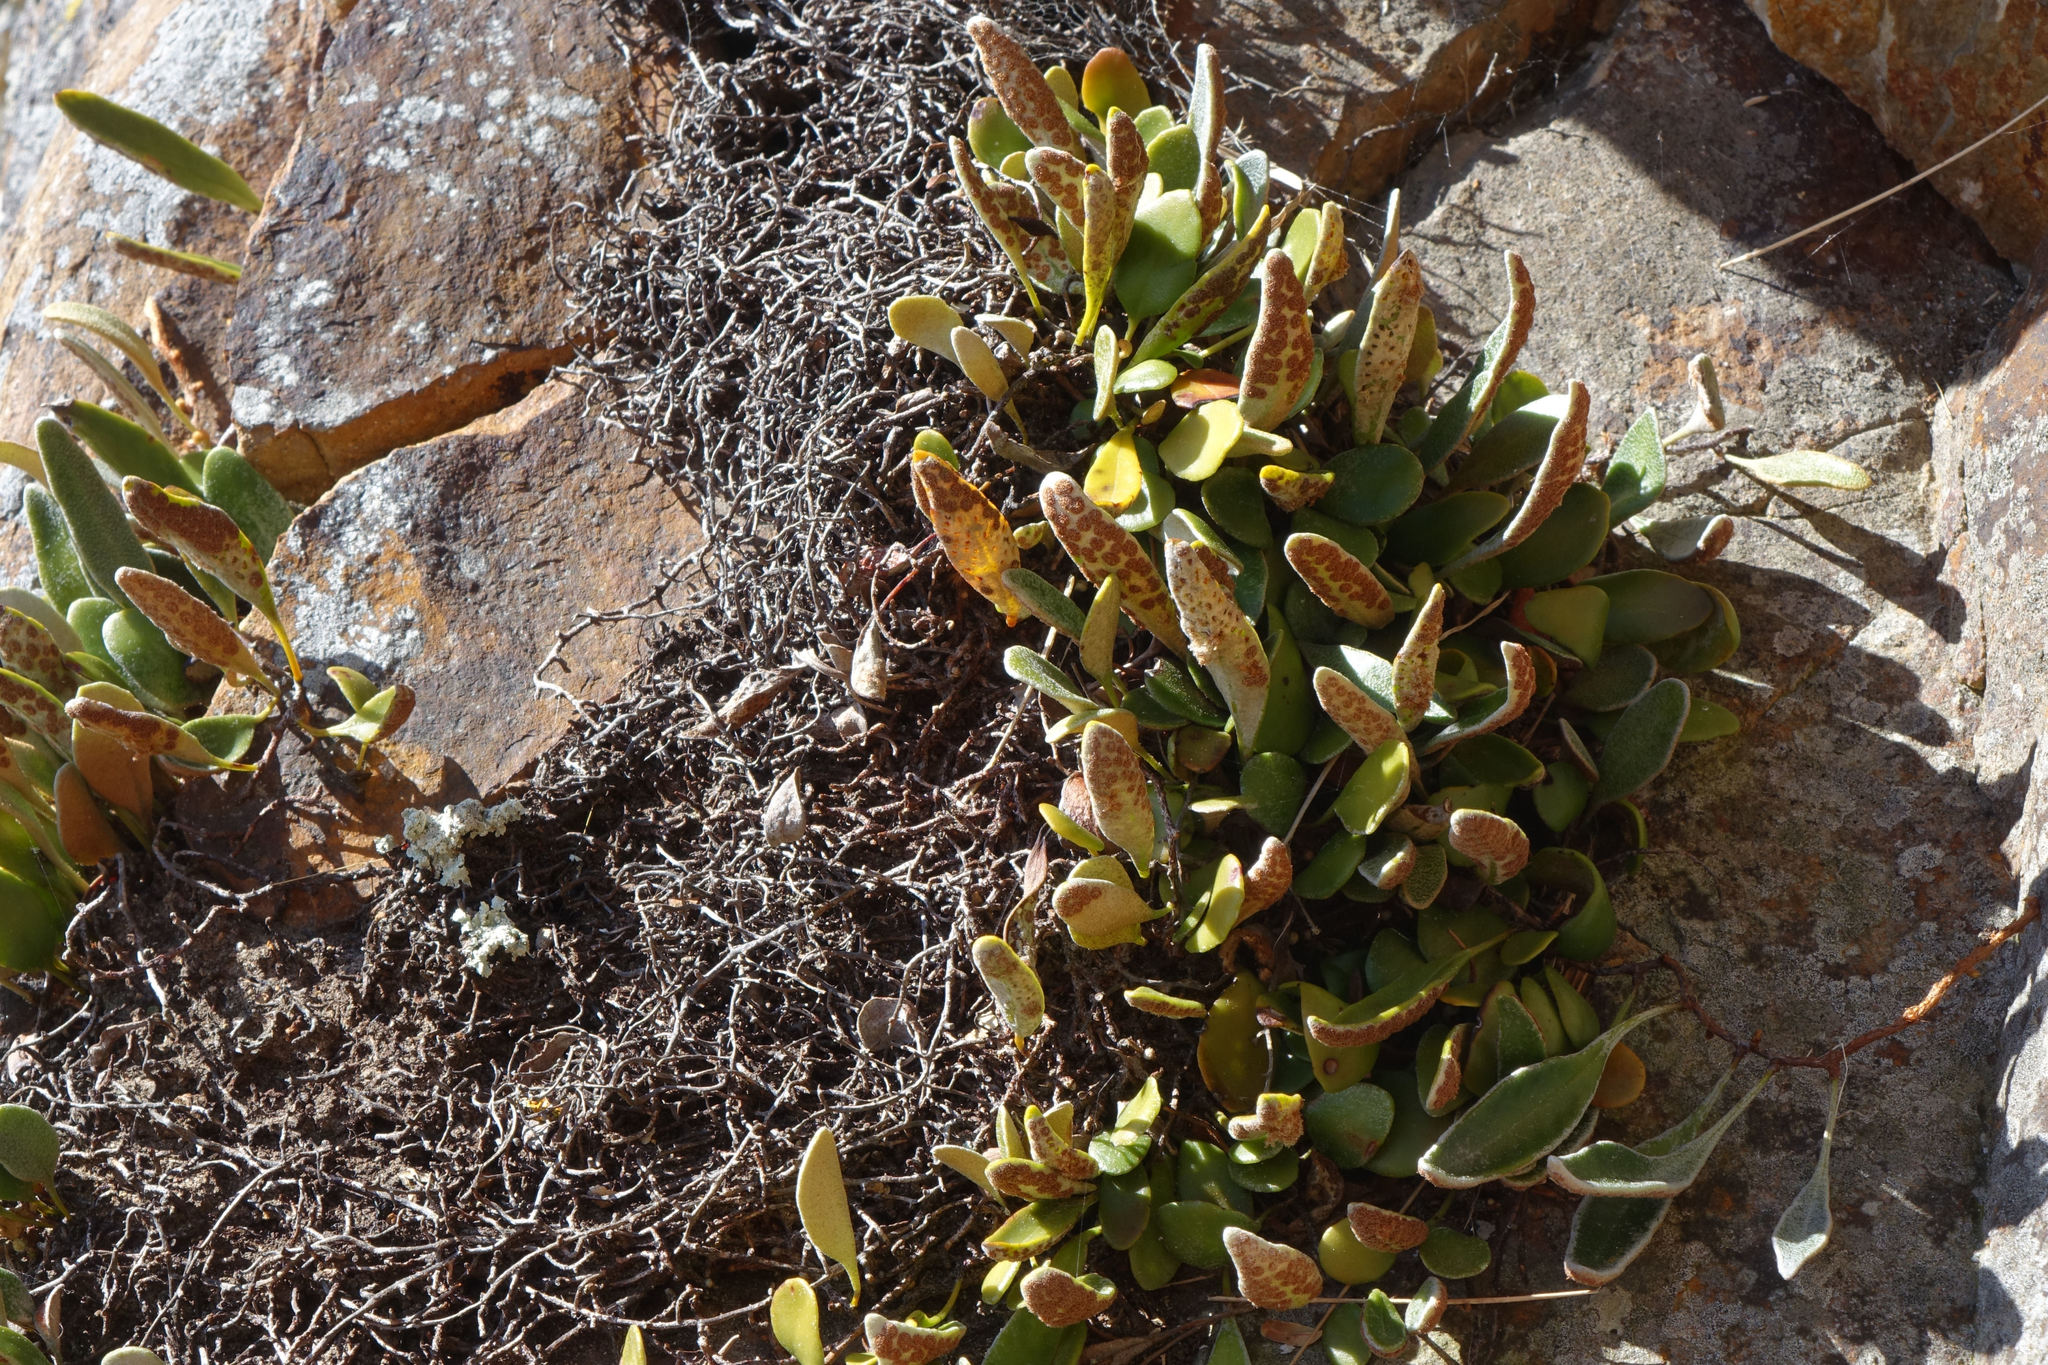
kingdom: Plantae
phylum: Tracheophyta
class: Polypodiopsida
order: Polypodiales
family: Polypodiaceae
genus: Pyrrosia
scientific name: Pyrrosia eleagnifolia
